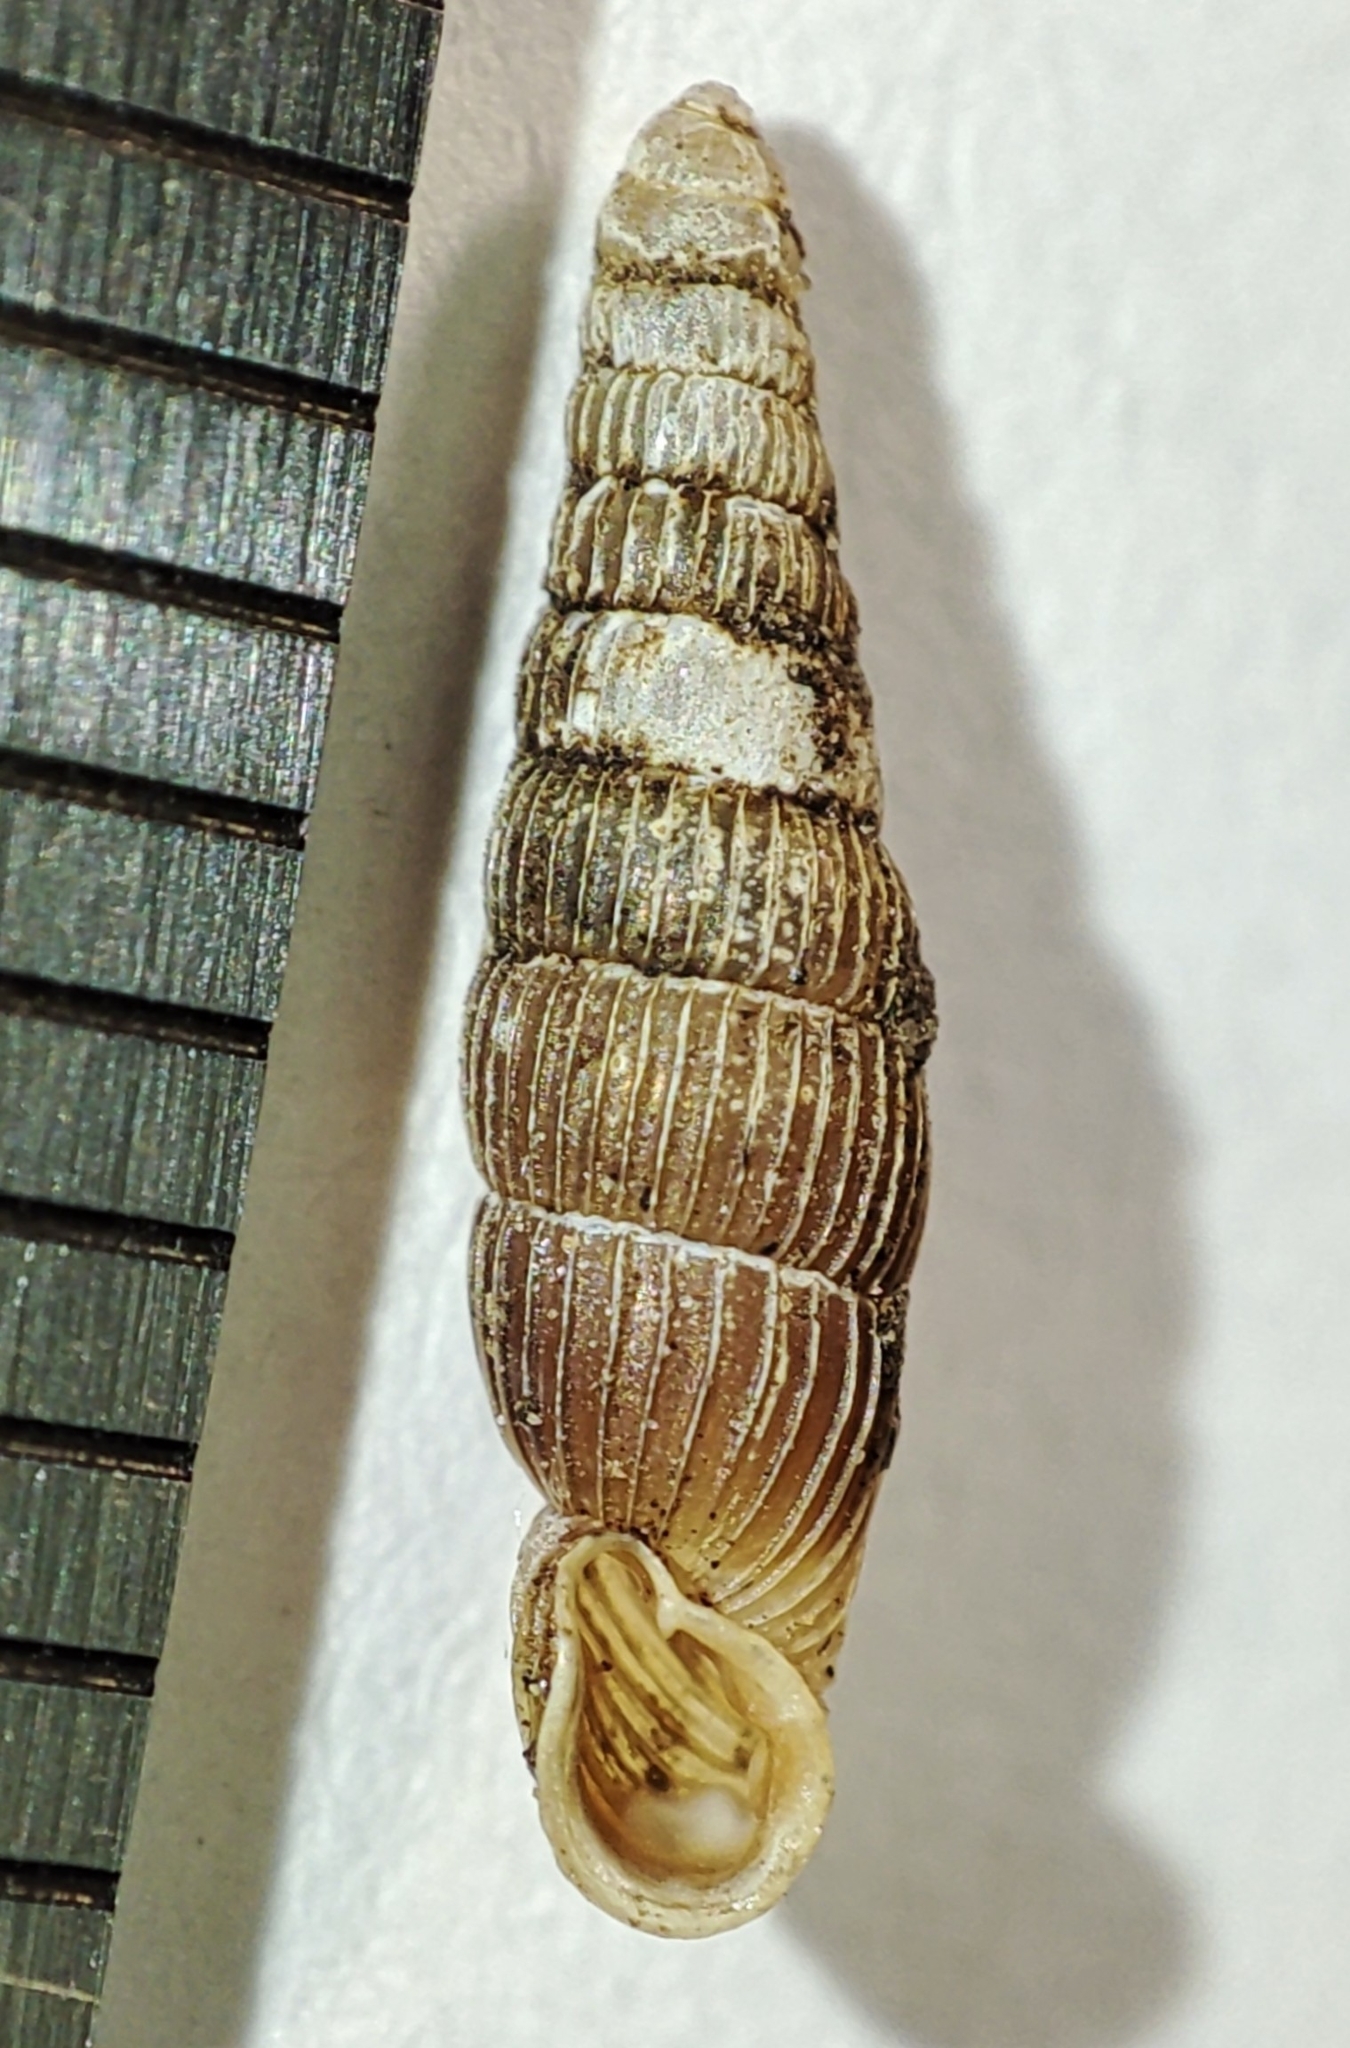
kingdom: Animalia
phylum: Mollusca
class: Gastropoda
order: Stylommatophora
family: Clausiliidae
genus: Ruthenica
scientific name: Ruthenica filograna
